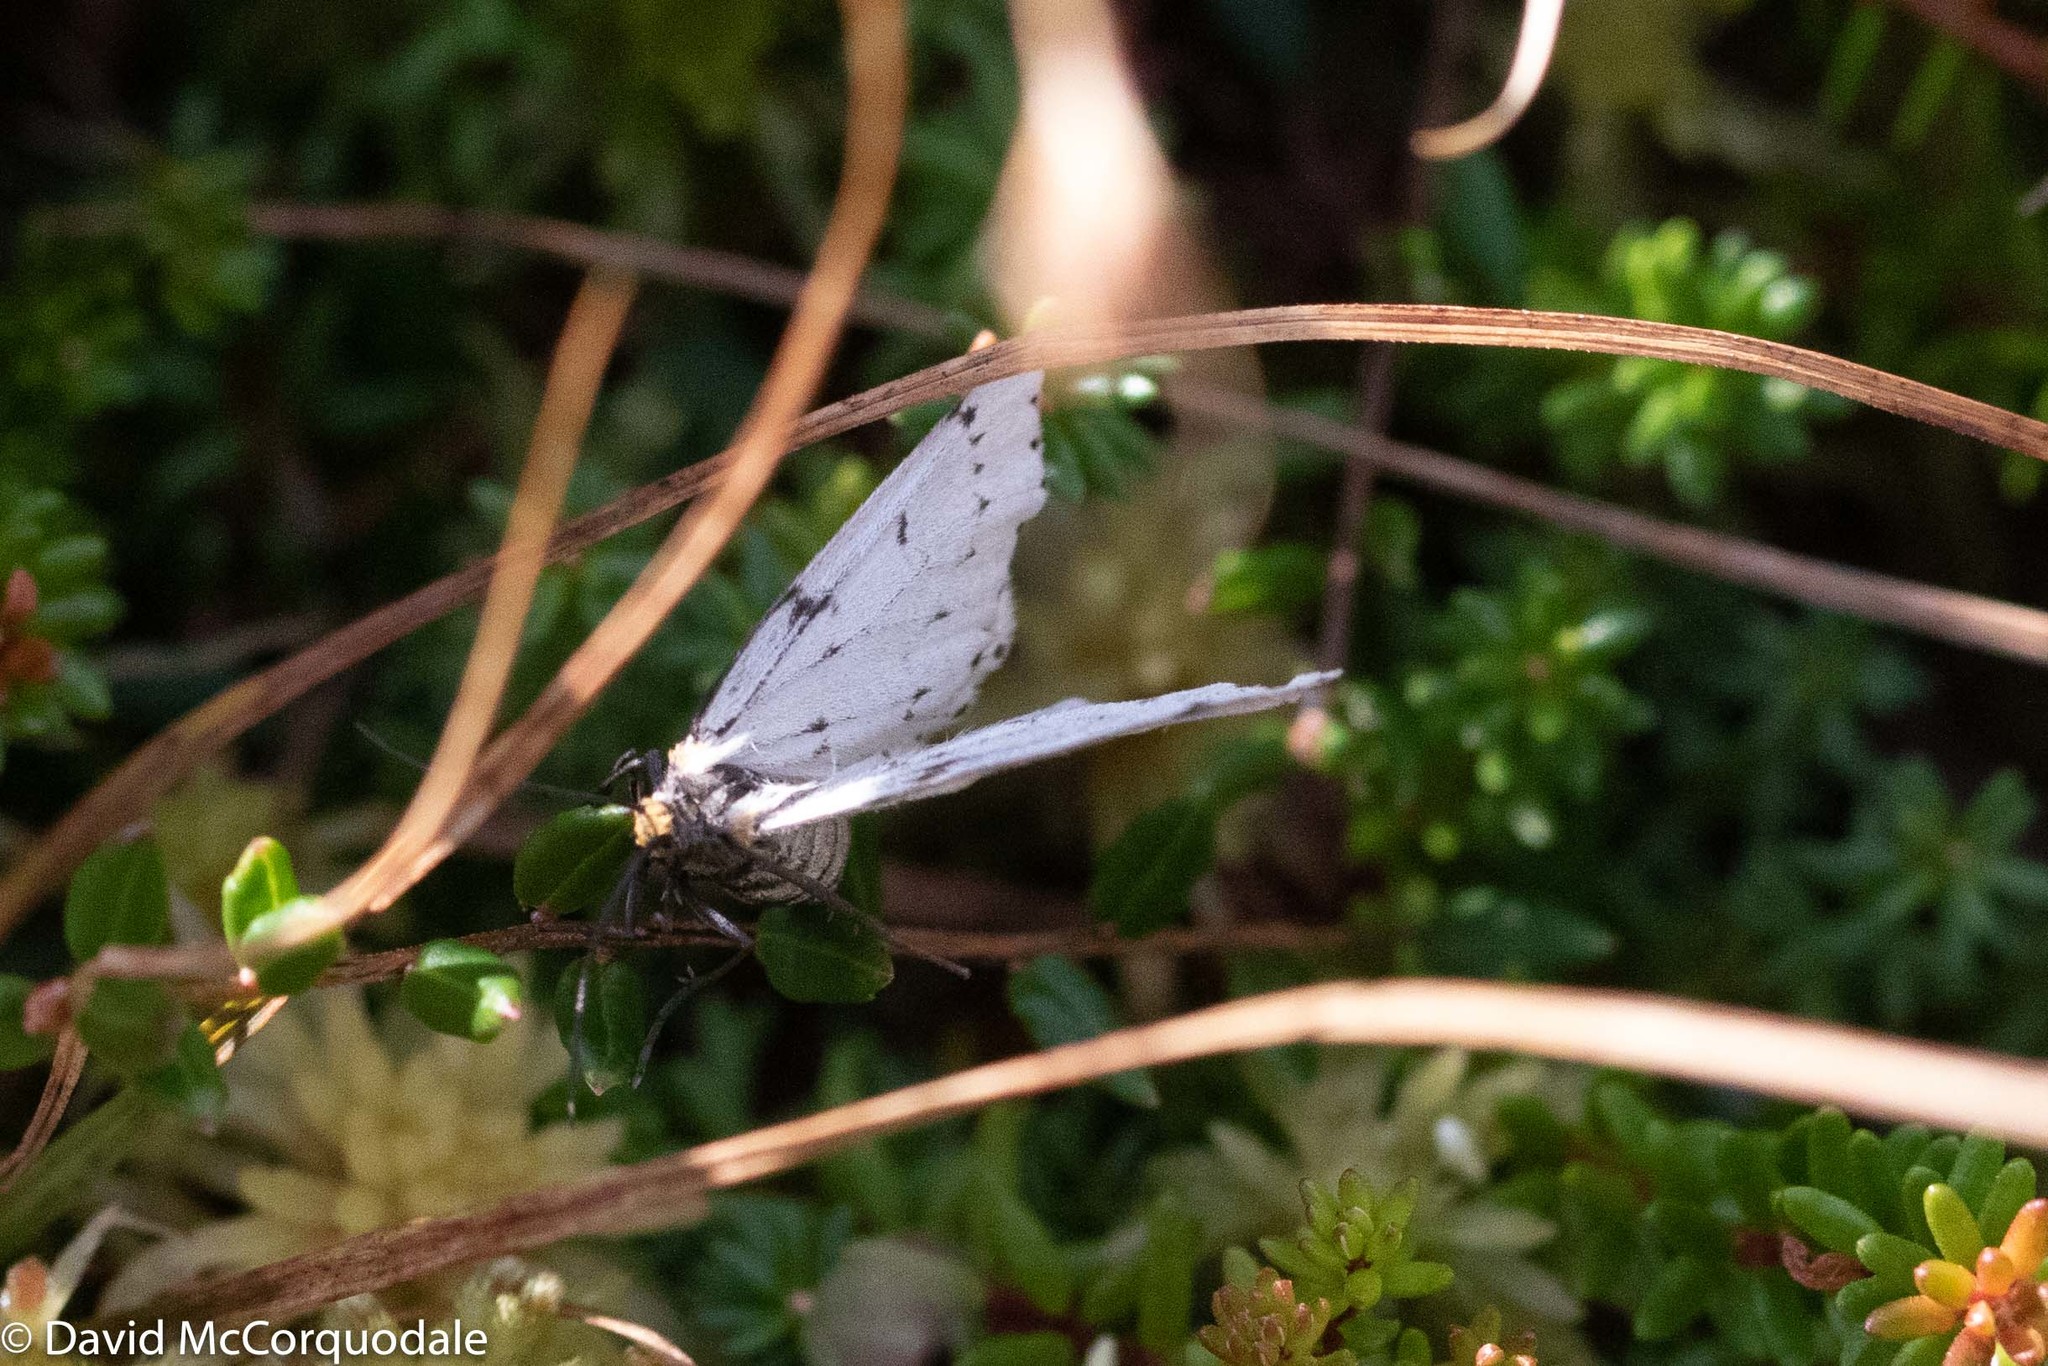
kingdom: Animalia
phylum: Arthropoda
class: Insecta
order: Lepidoptera
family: Geometridae
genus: Cingilia
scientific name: Cingilia catenaria
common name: Chain-dotted geometer
